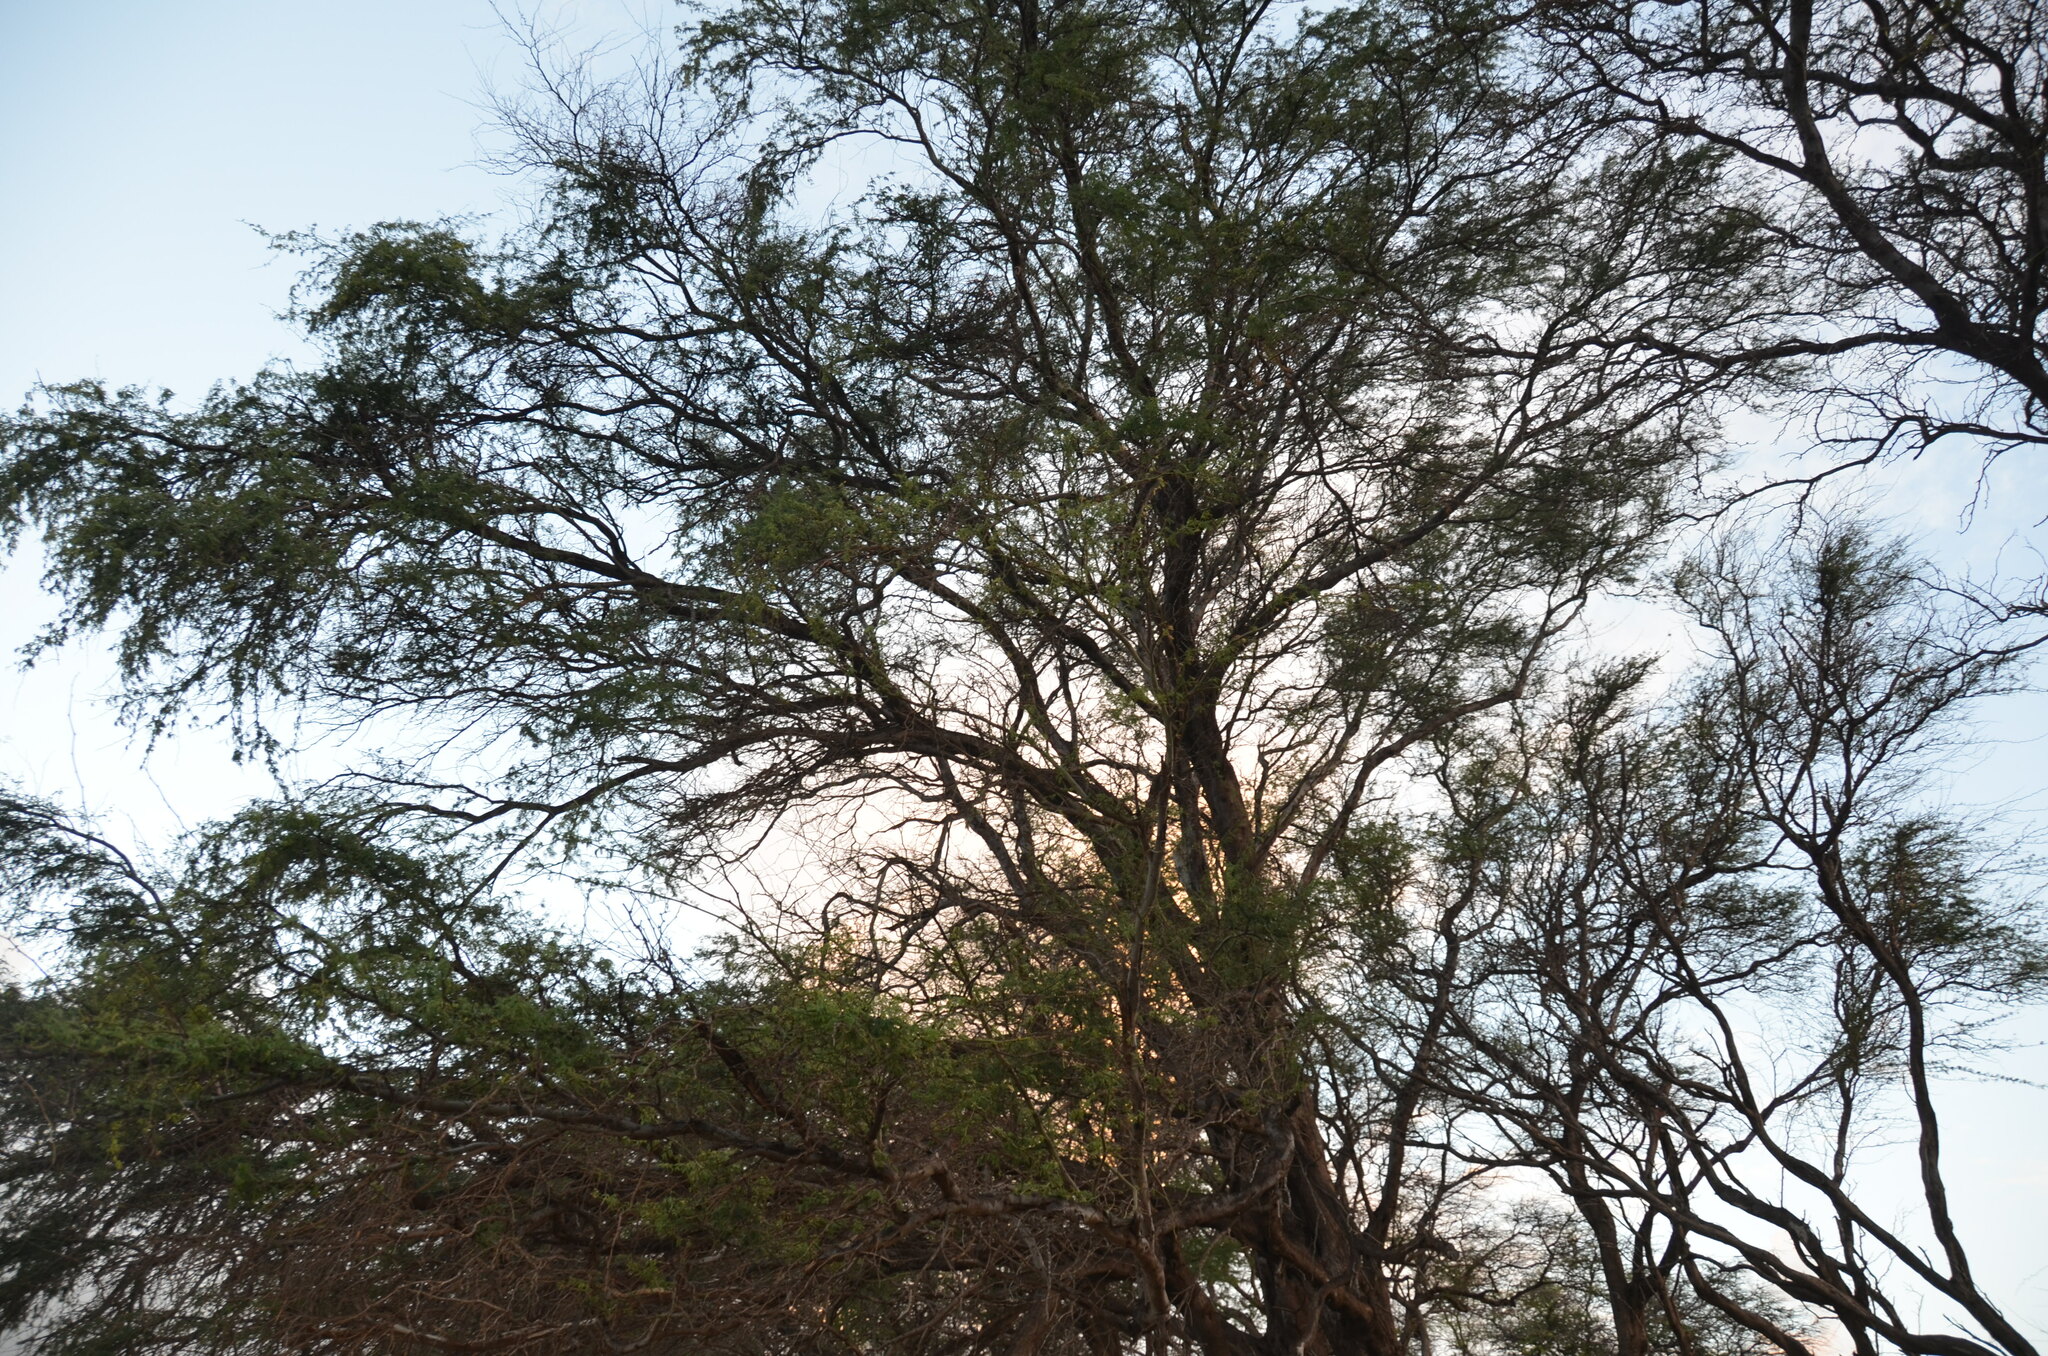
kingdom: Plantae
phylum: Tracheophyta
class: Magnoliopsida
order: Fabales
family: Fabaceae
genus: Prosopis
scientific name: Prosopis pallida
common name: Mesquite
